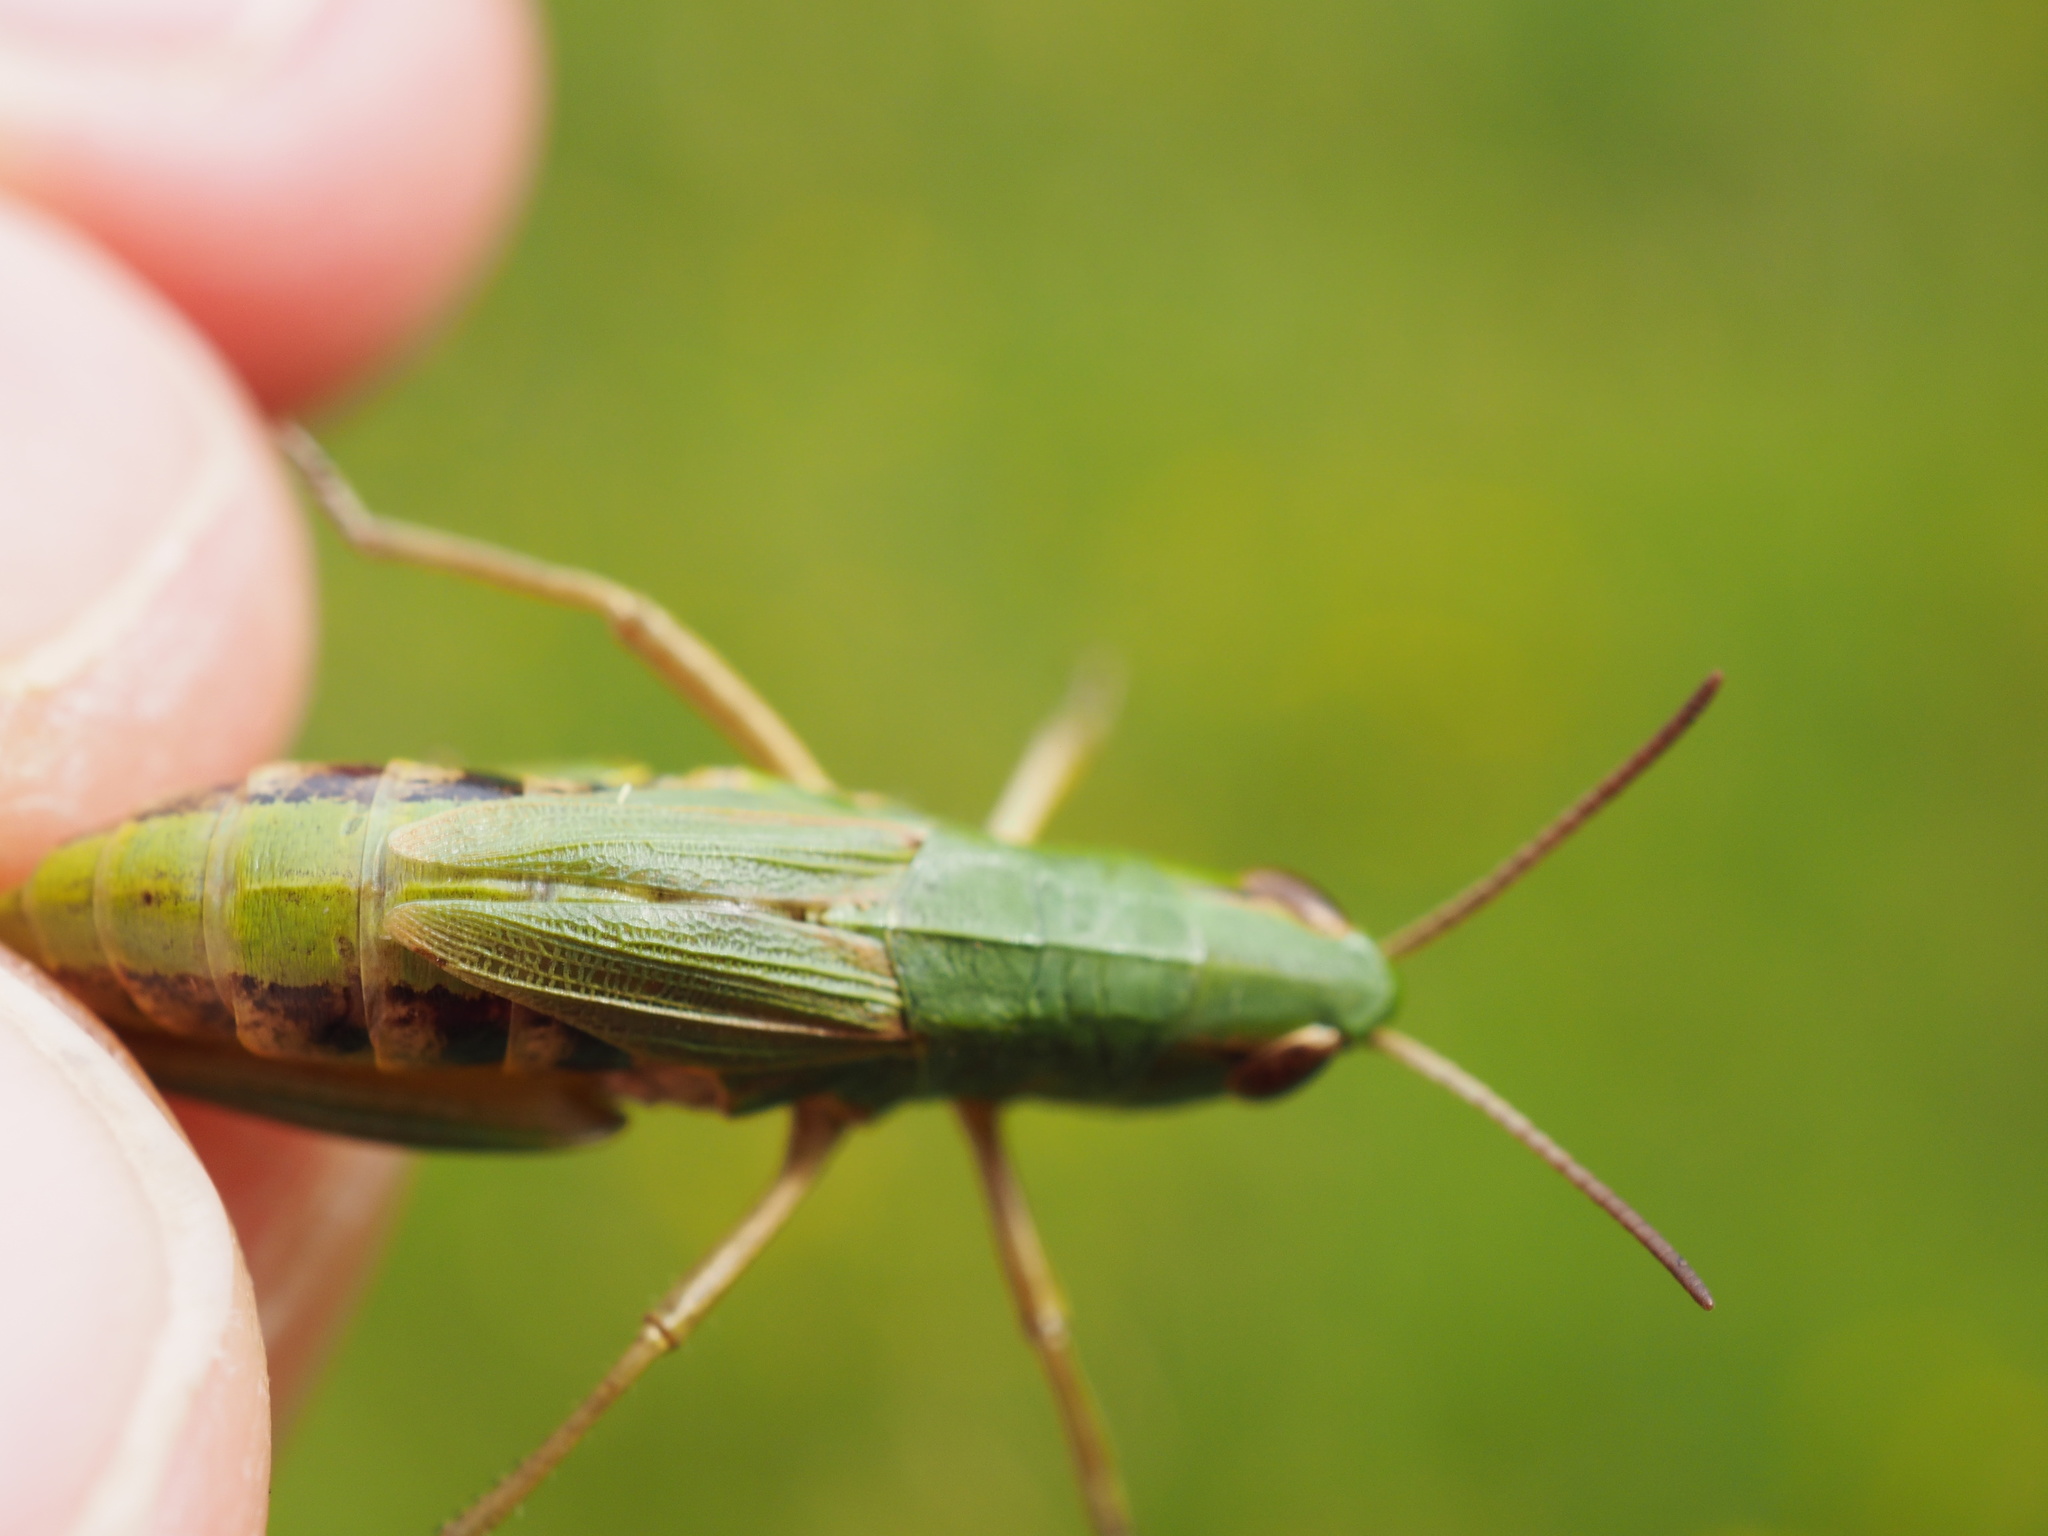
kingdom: Animalia
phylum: Arthropoda
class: Insecta
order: Orthoptera
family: Acrididae
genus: Pseudochorthippus
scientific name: Pseudochorthippus parallelus
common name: Meadow grasshopper
